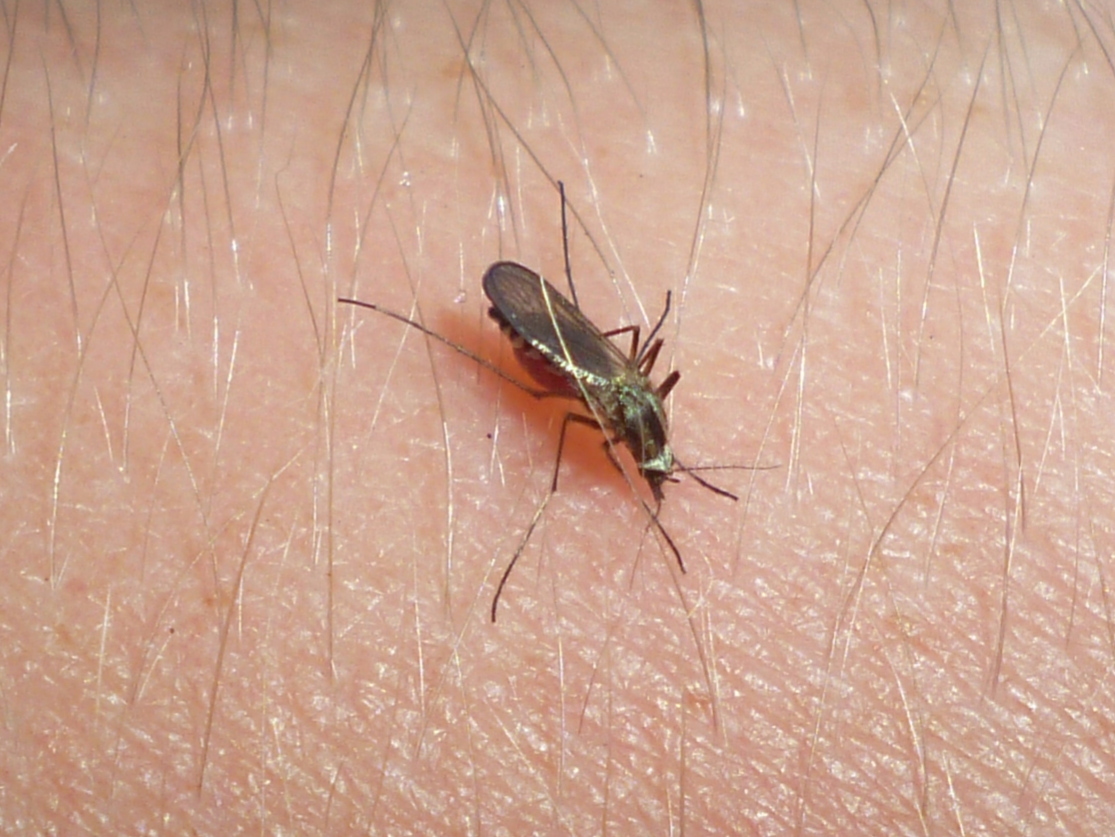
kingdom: Animalia
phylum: Arthropoda
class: Insecta
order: Diptera
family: Culicidae
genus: Aedes
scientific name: Aedes trivittatus
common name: Plains floodwater mosquito
